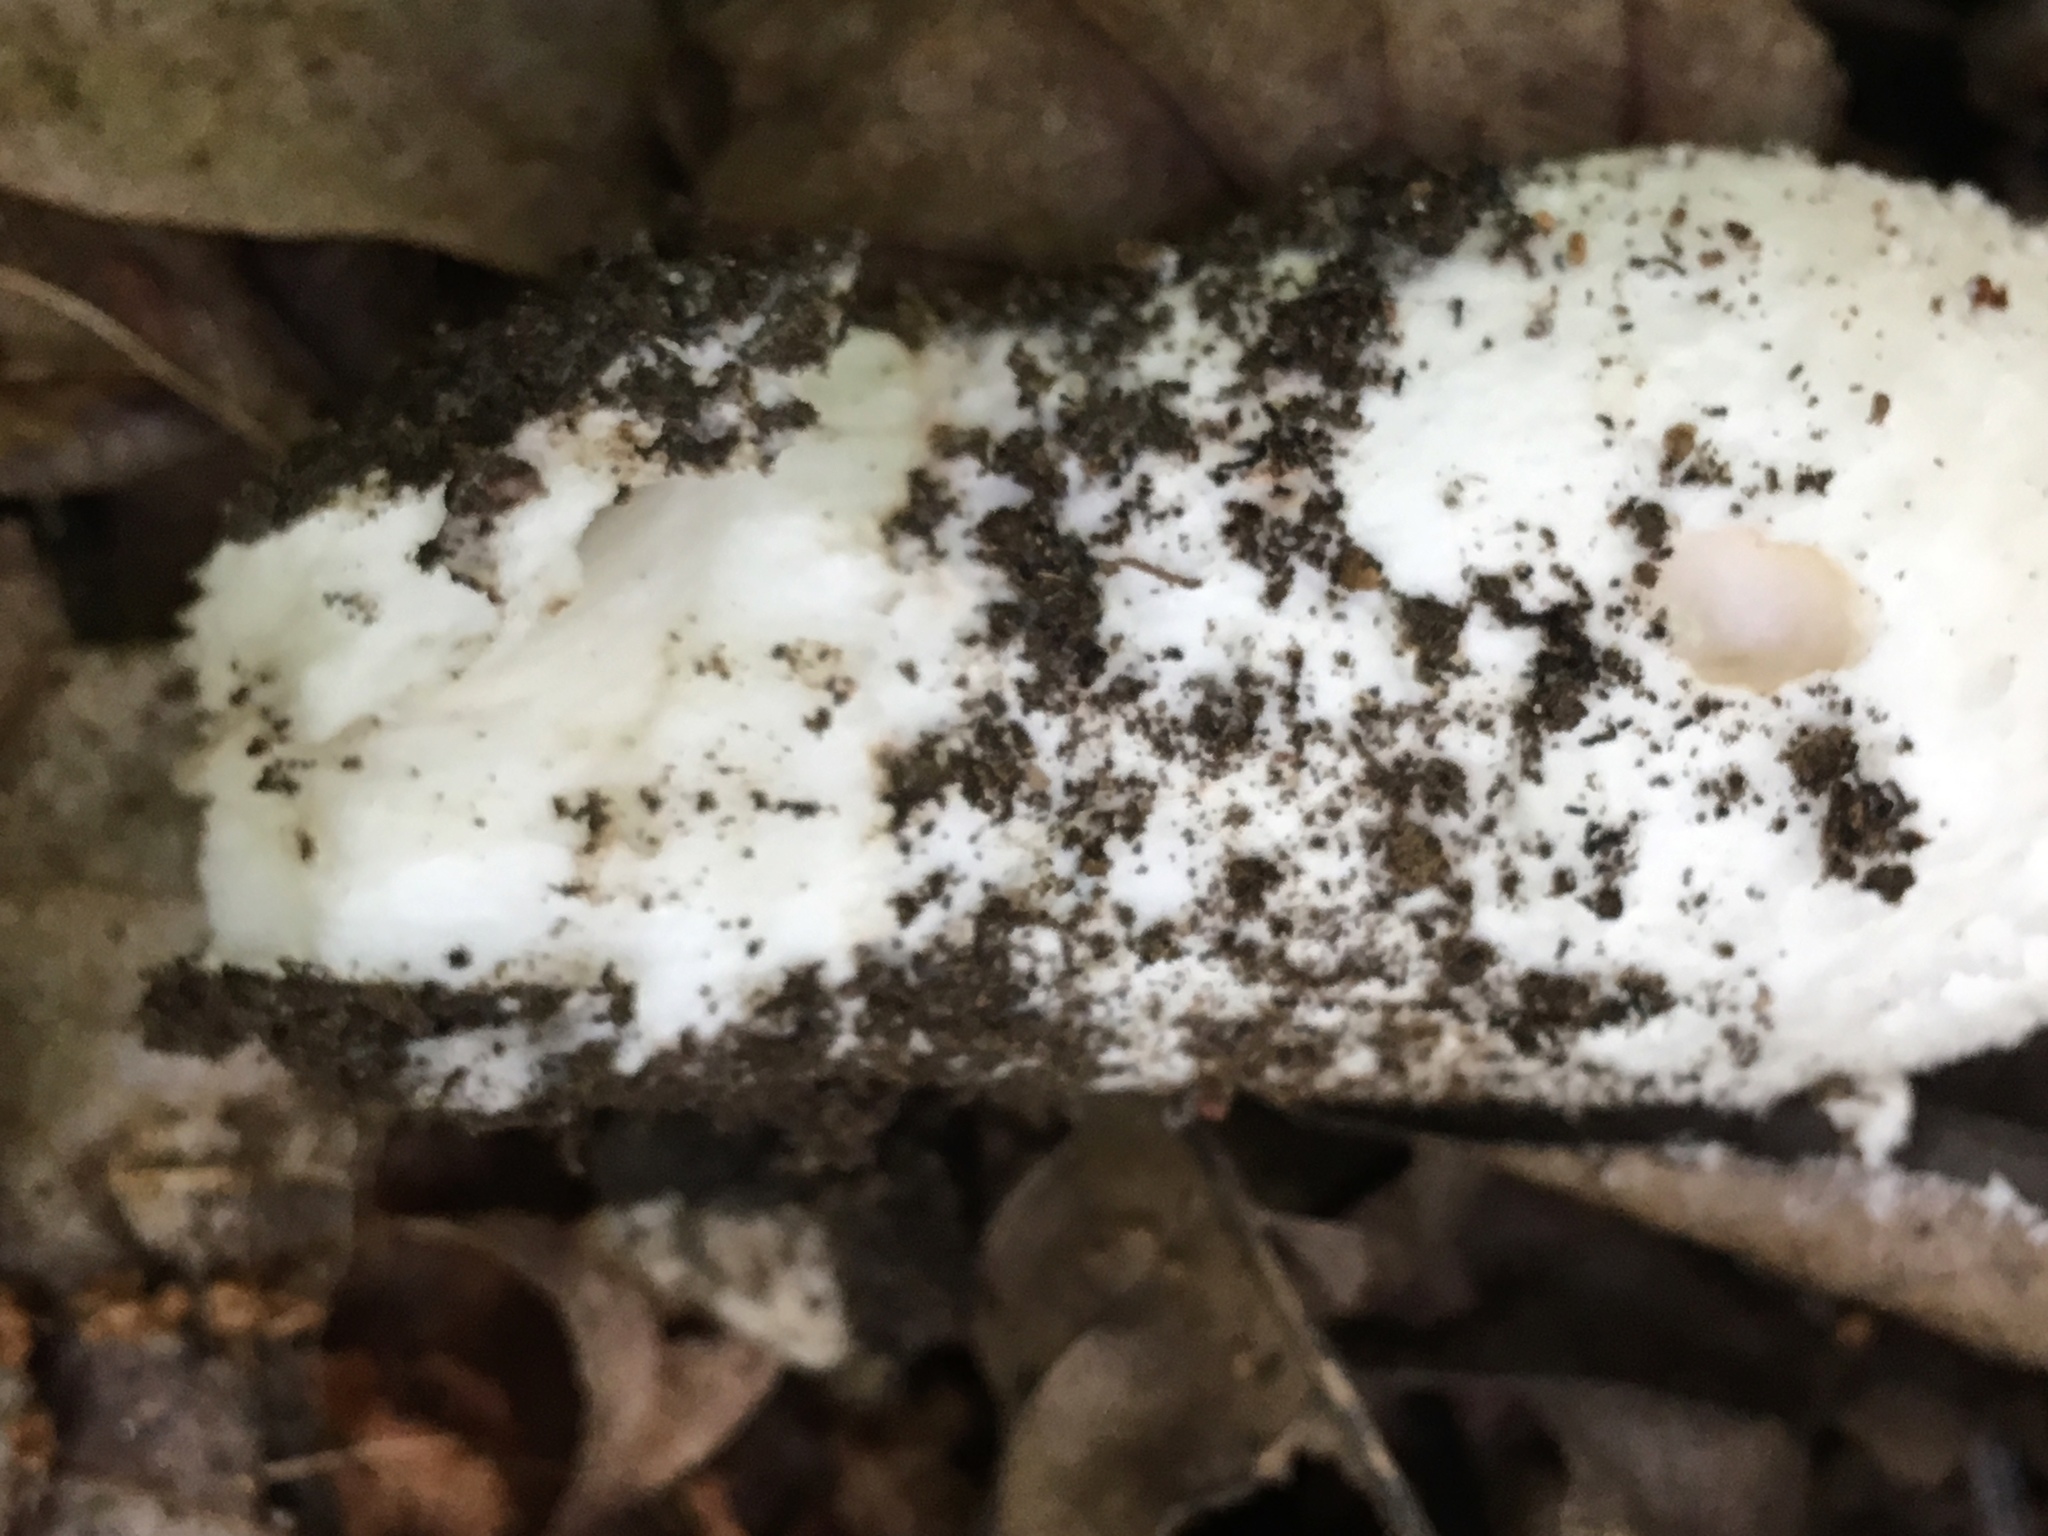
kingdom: Fungi
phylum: Basidiomycota
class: Agaricomycetes
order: Agaricales
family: Amanitaceae
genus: Amanita
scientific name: Amanita longipes
